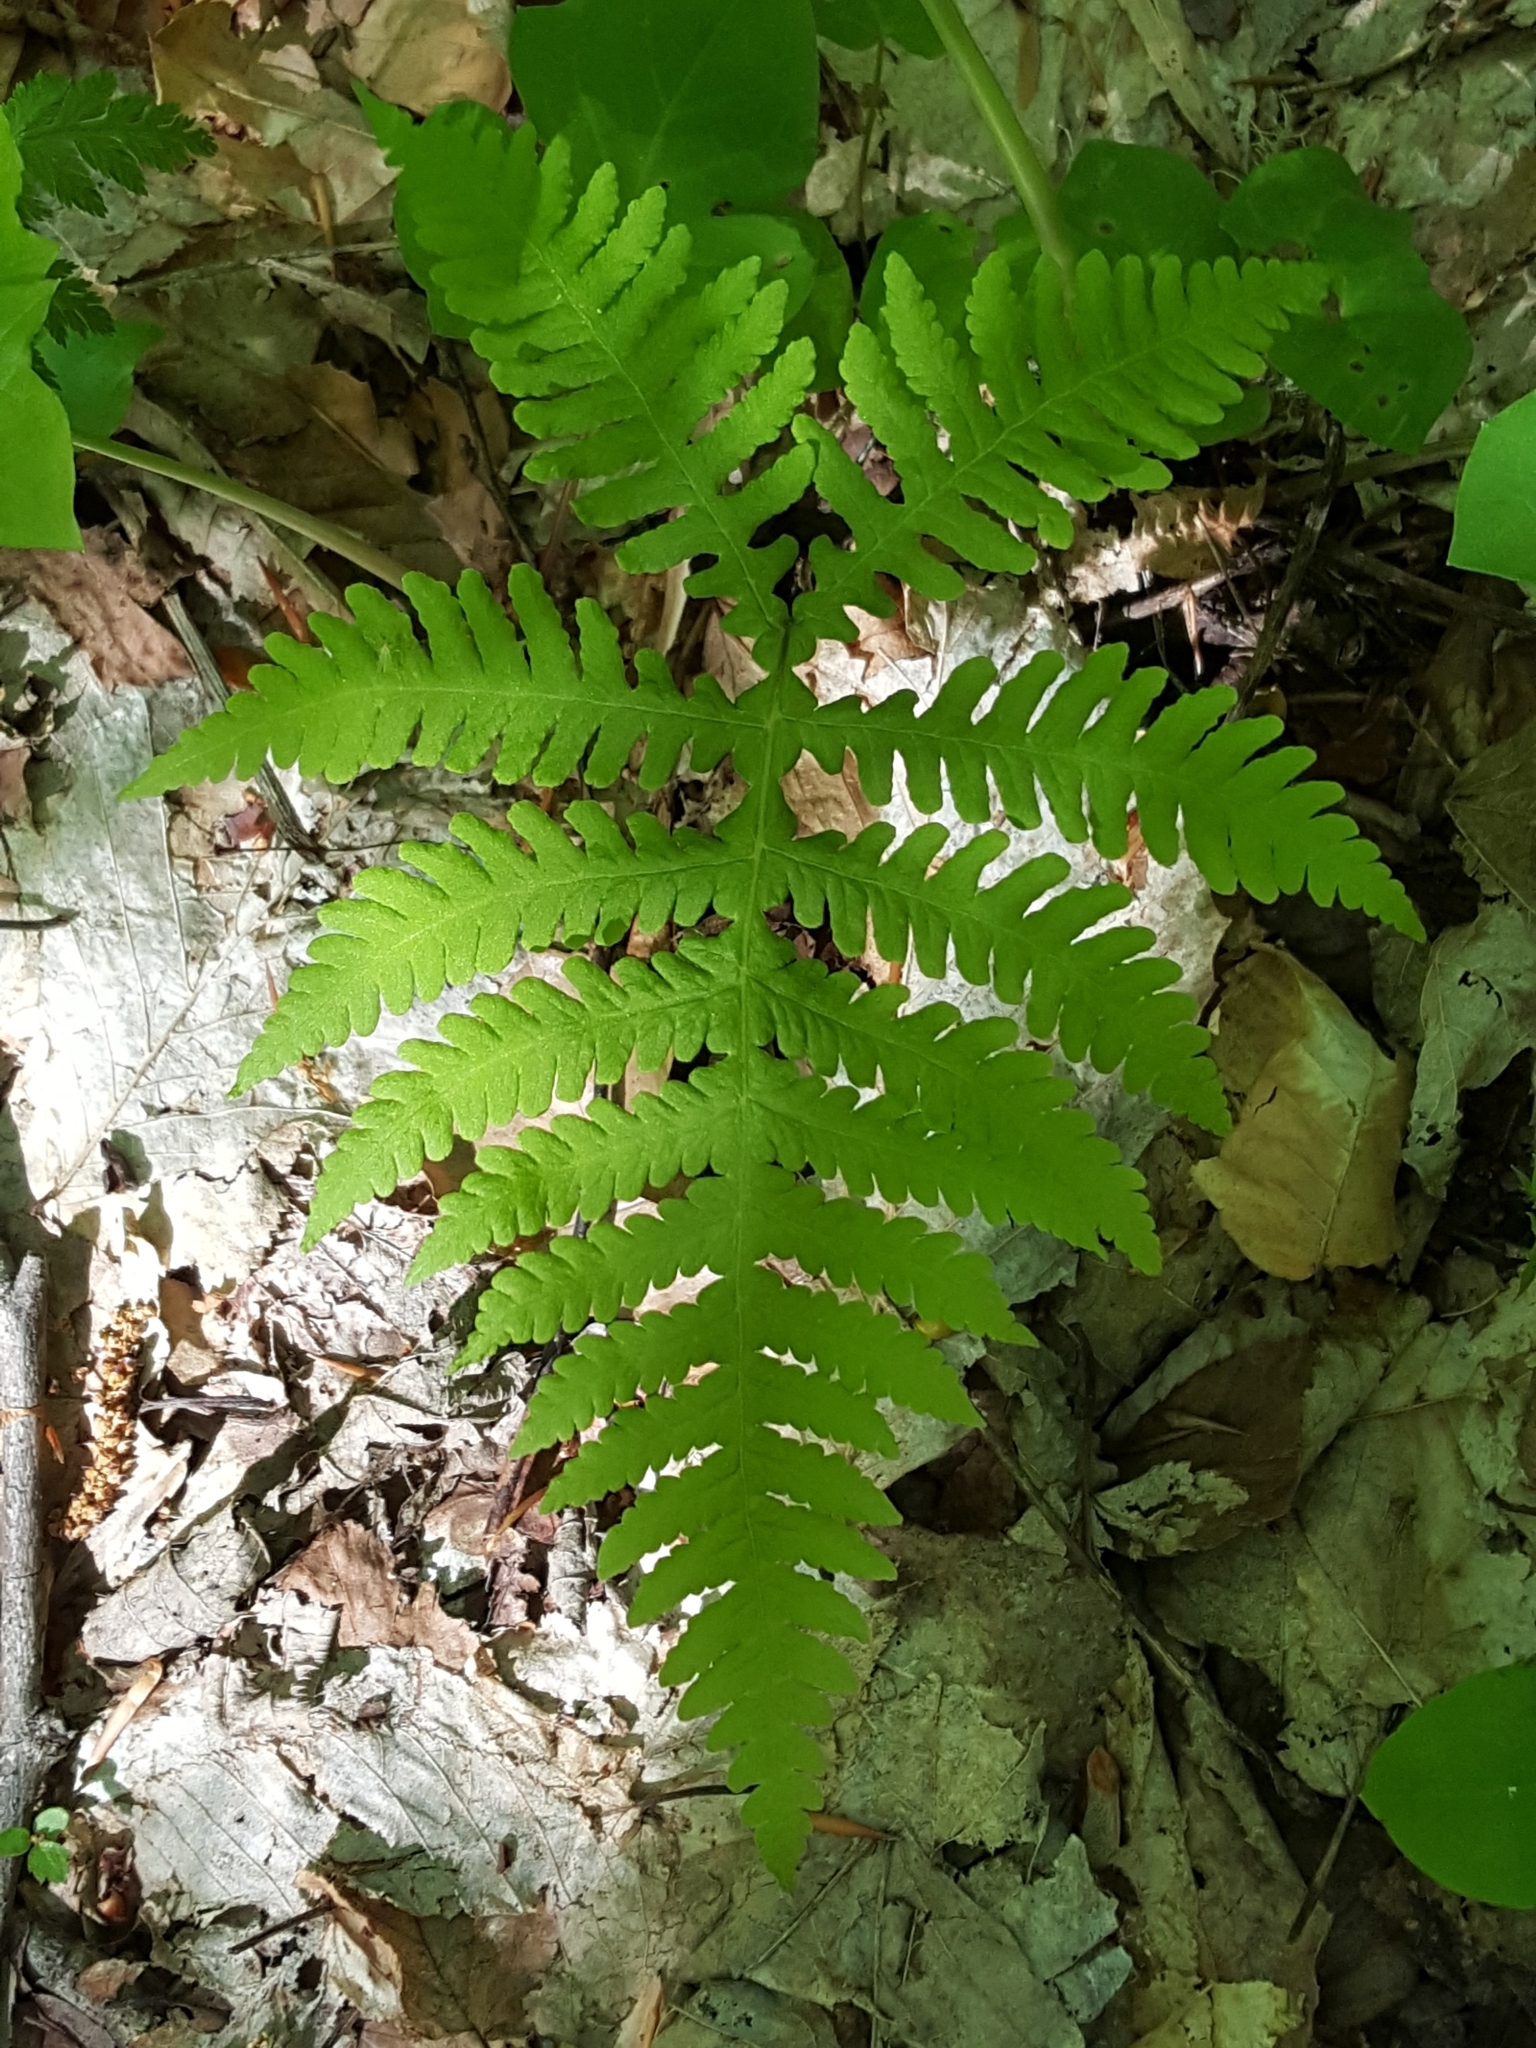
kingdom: Plantae
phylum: Tracheophyta
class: Polypodiopsida
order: Polypodiales
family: Thelypteridaceae
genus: Phegopteris
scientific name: Phegopteris hexagonoptera
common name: Broad beech fern
